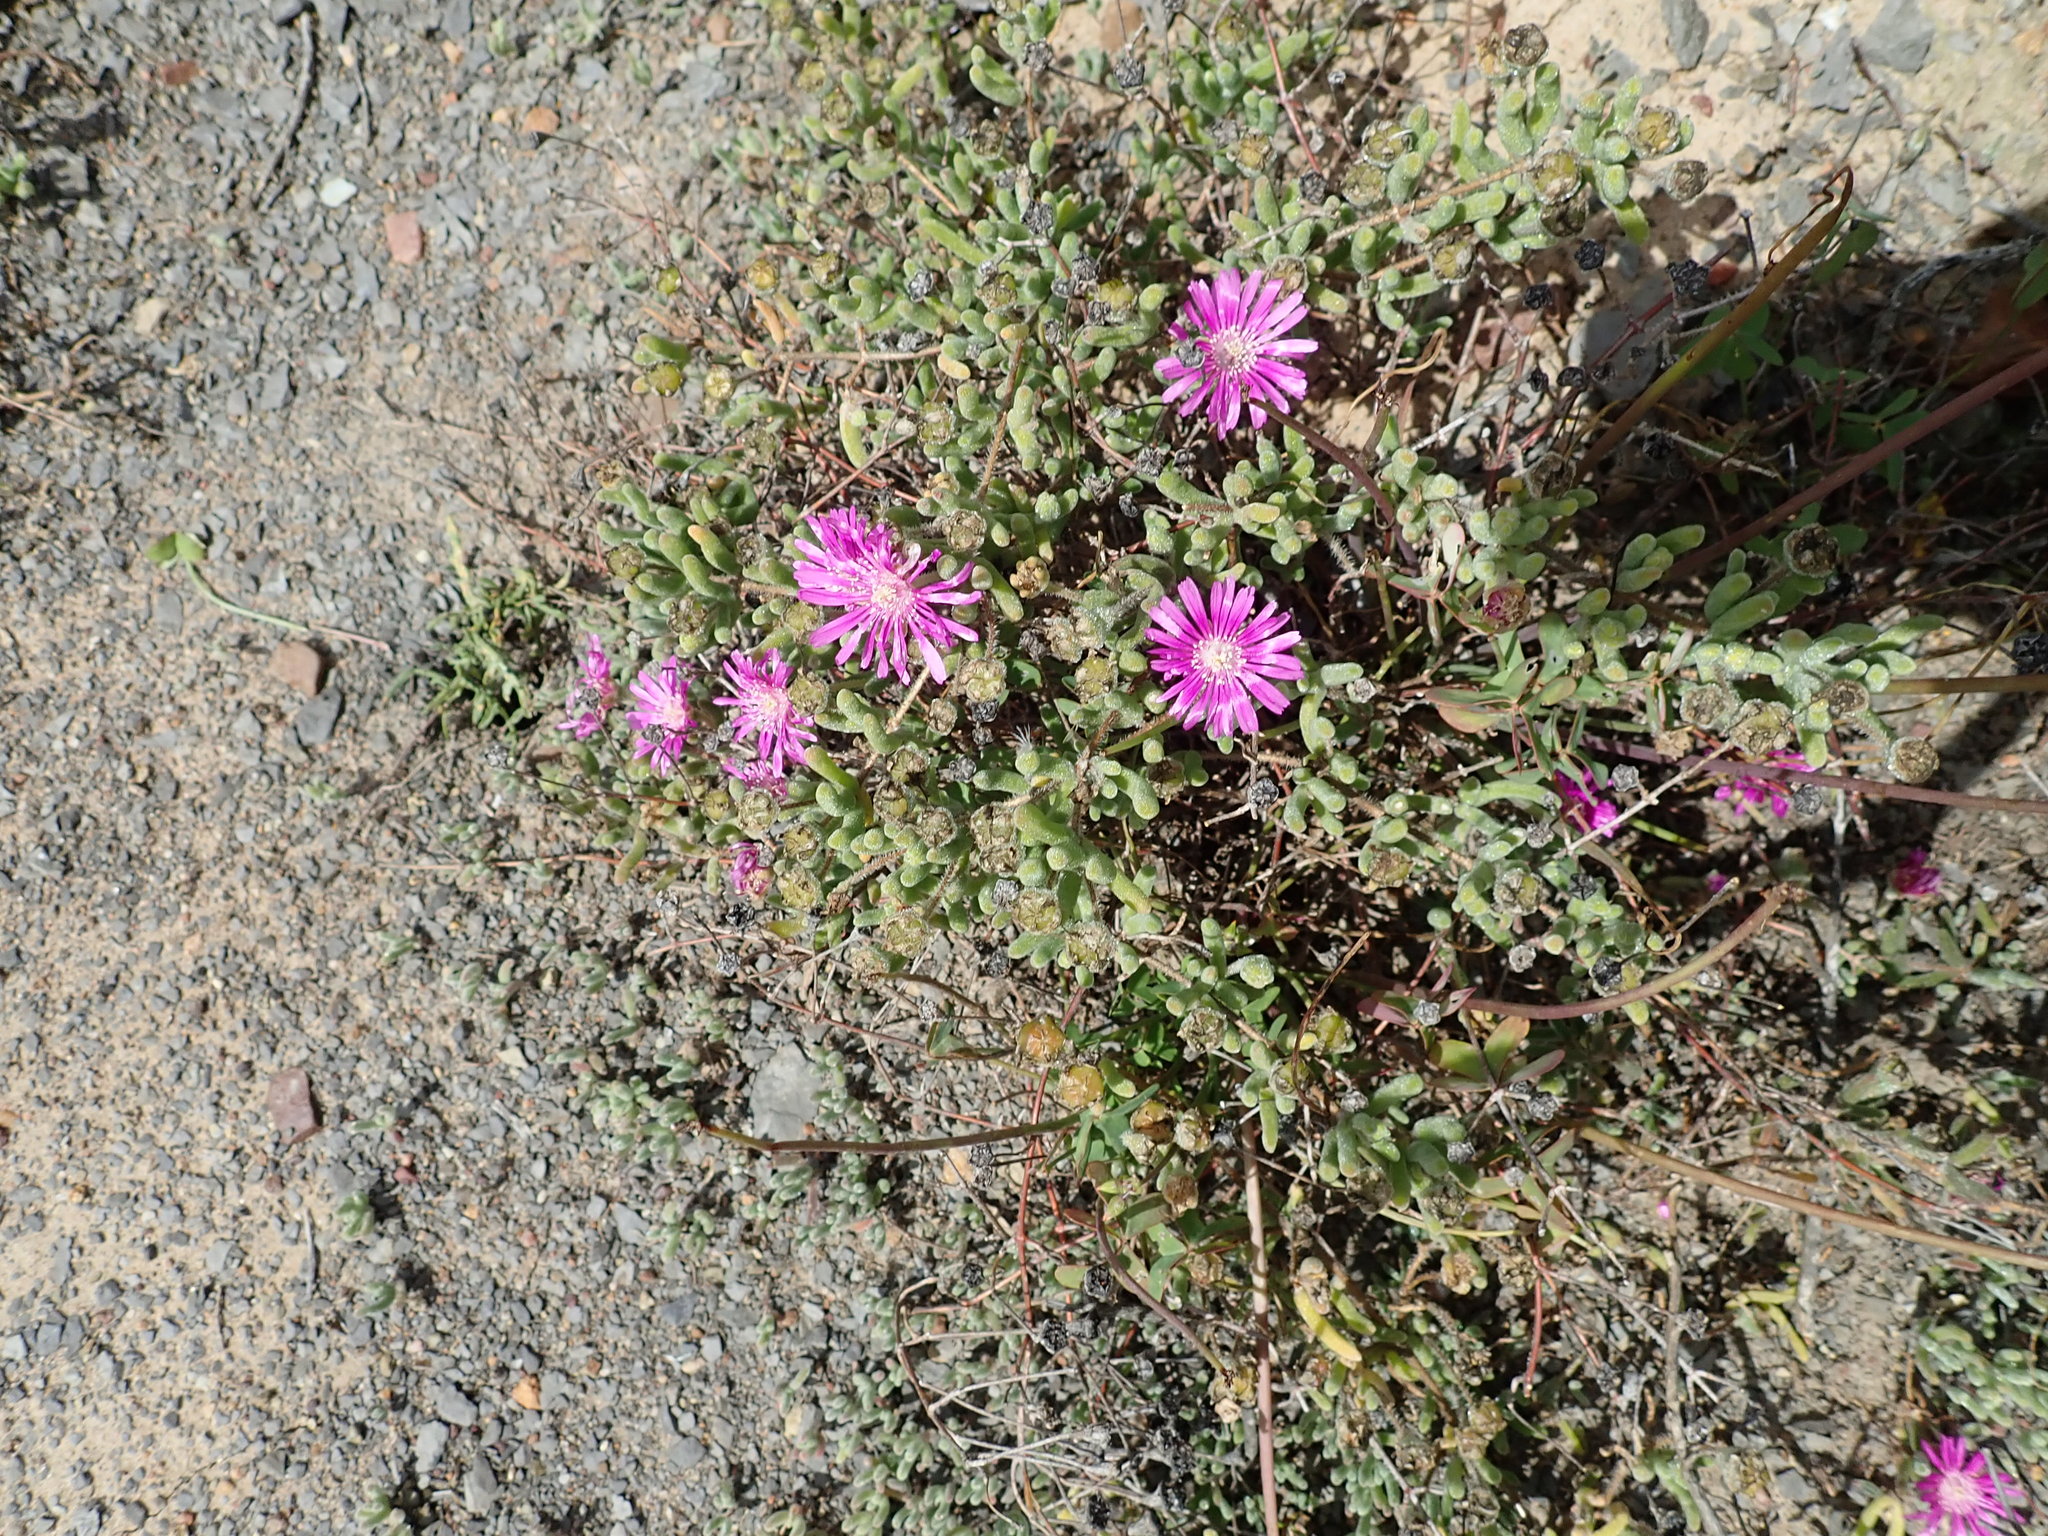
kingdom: Plantae
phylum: Tracheophyta
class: Magnoliopsida
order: Caryophyllales
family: Aizoaceae
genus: Drosanthemum
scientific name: Drosanthemum latipetalum
